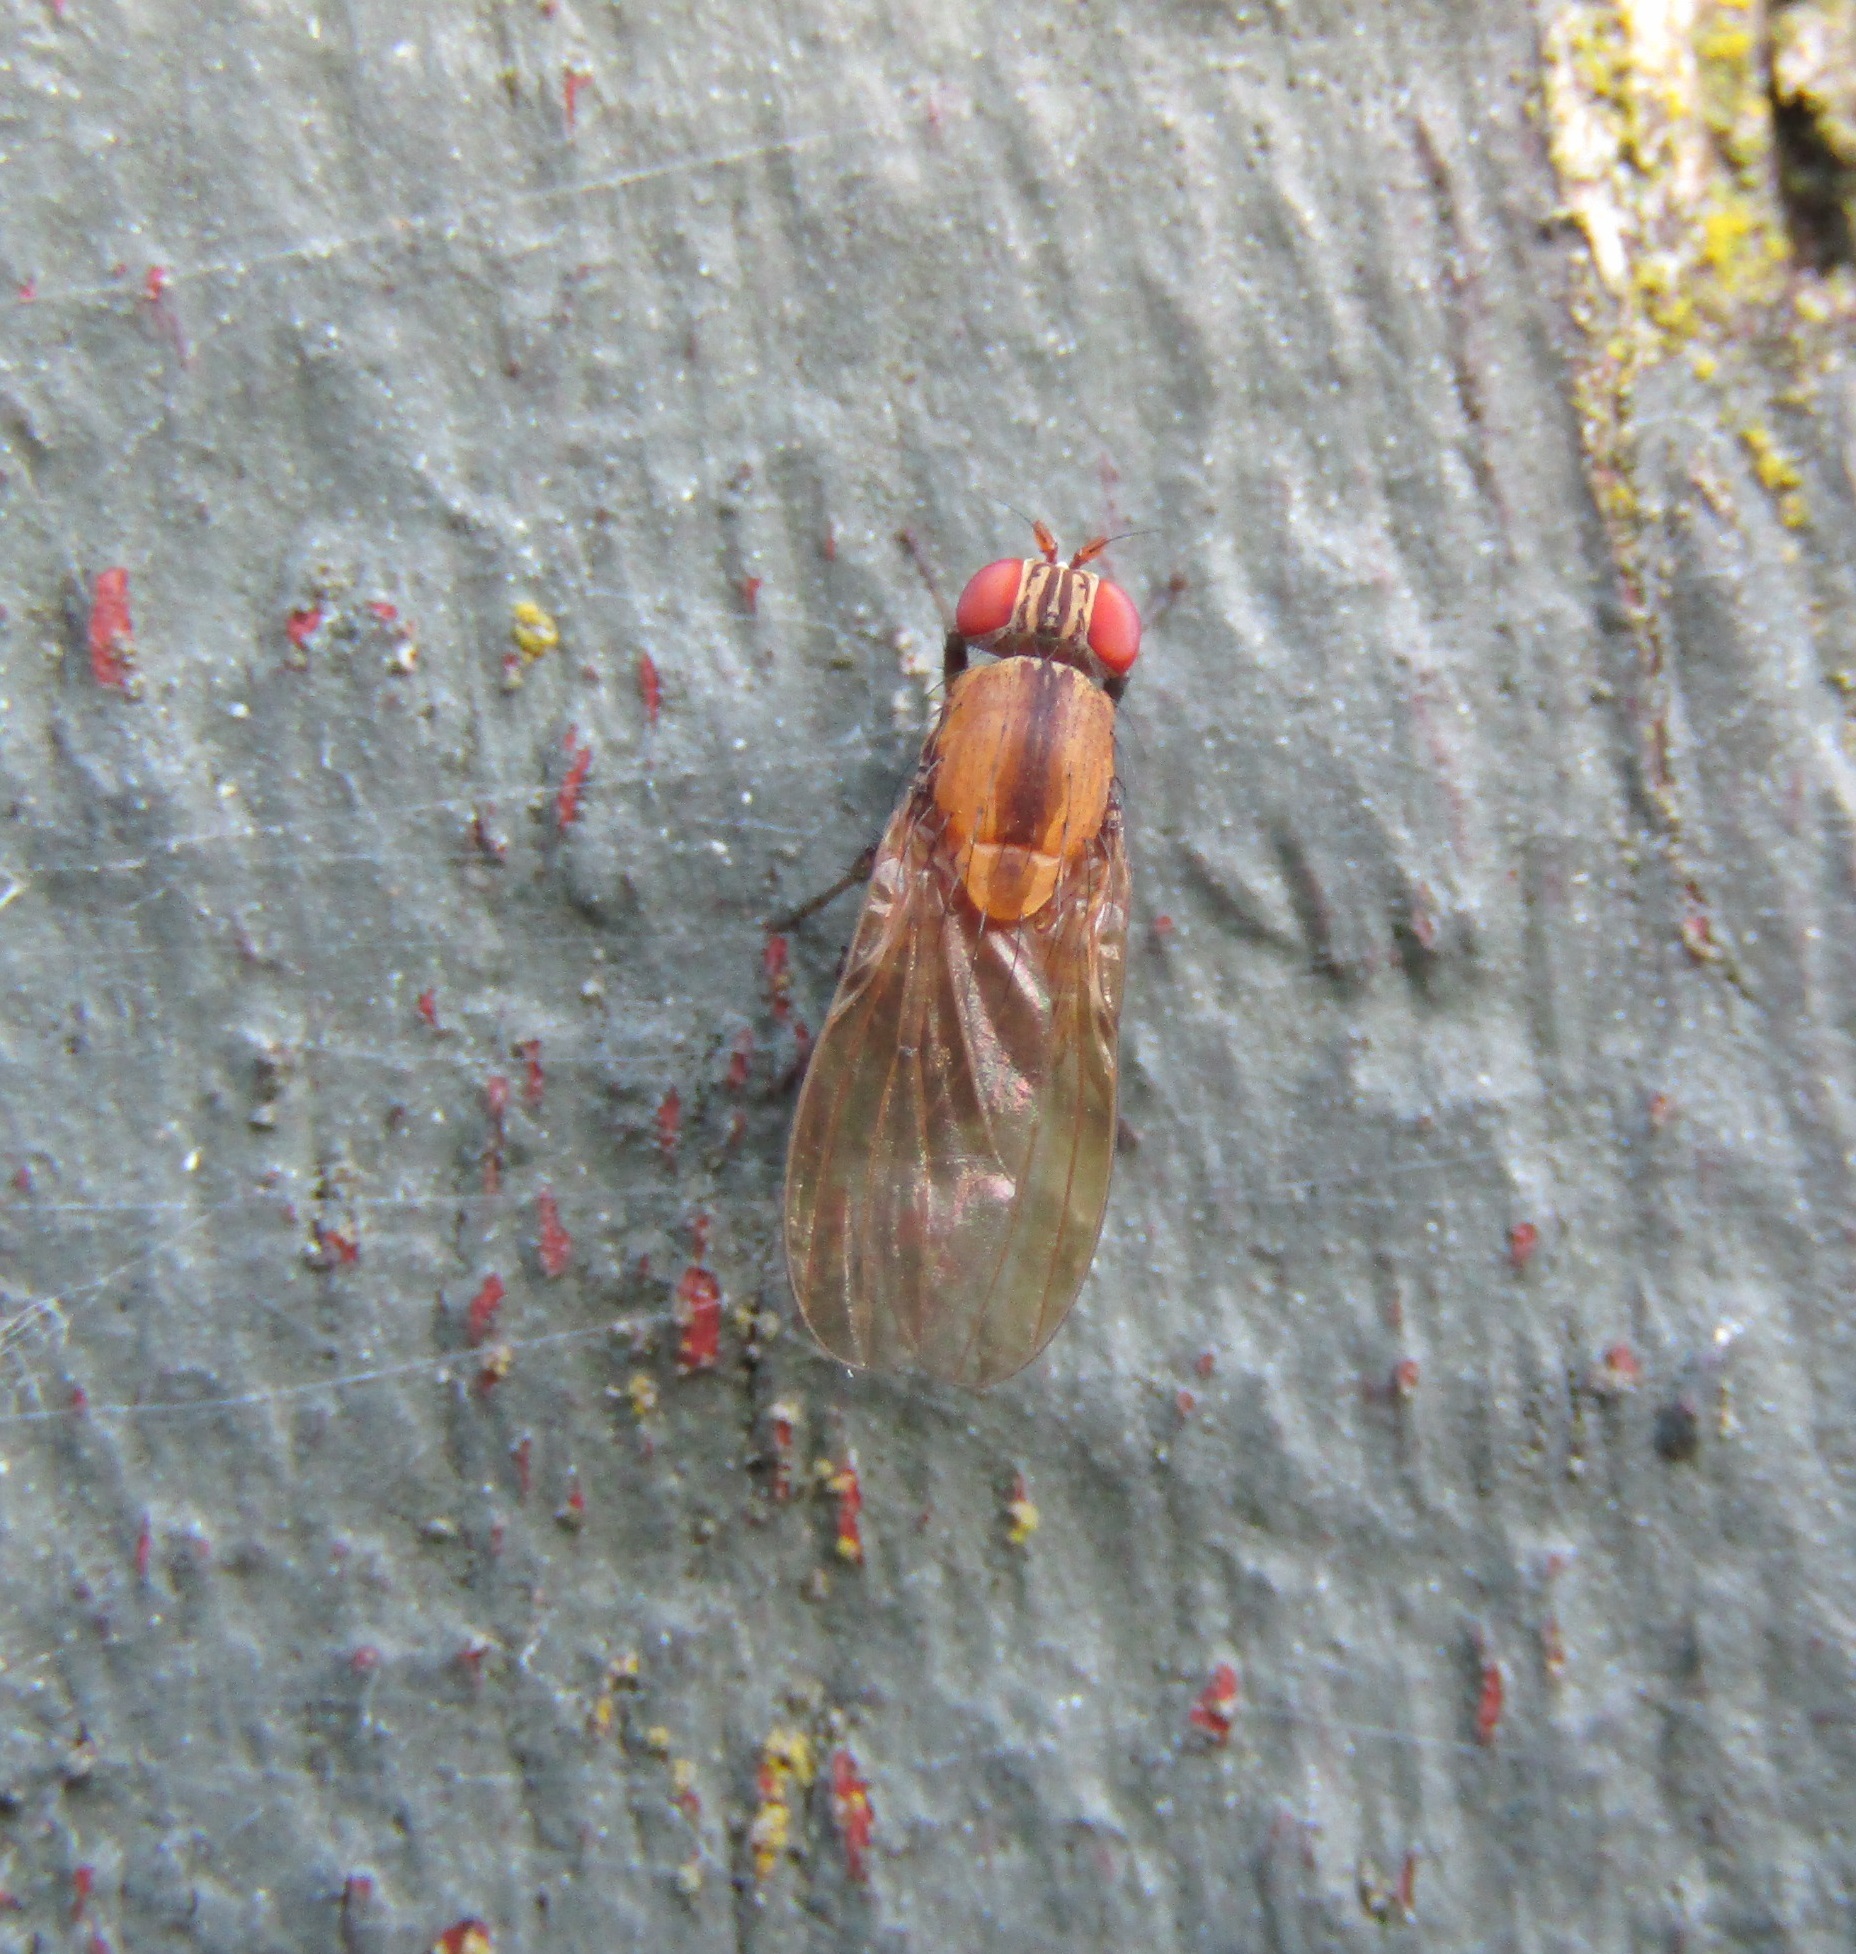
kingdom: Animalia
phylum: Arthropoda
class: Insecta
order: Diptera
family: Lauxaniidae
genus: Sapromyza
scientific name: Sapromyza neozelandica
